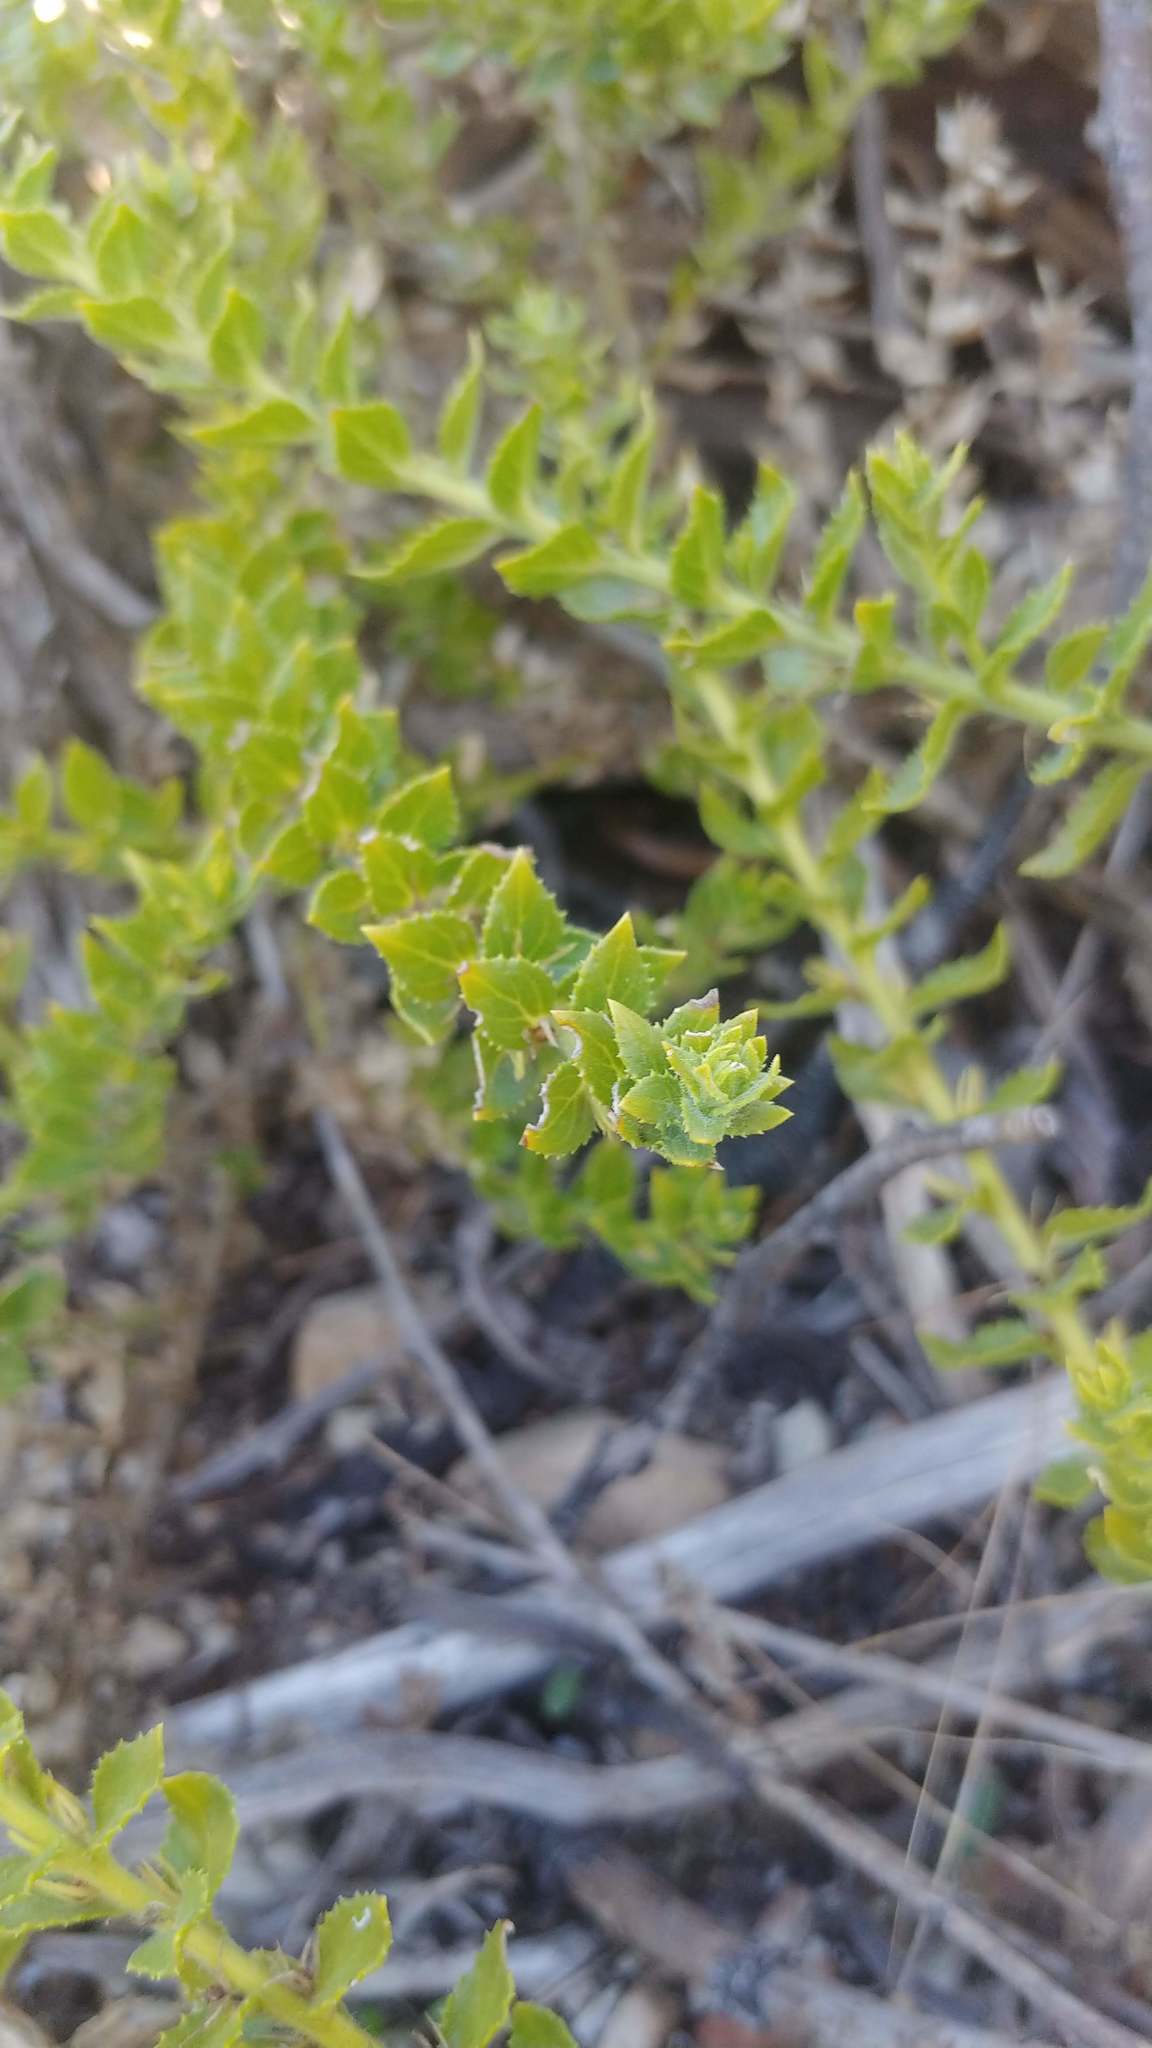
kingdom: Plantae
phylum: Tracheophyta
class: Magnoliopsida
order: Lamiales
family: Scrophulariaceae
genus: Oftia
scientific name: Oftia africana
